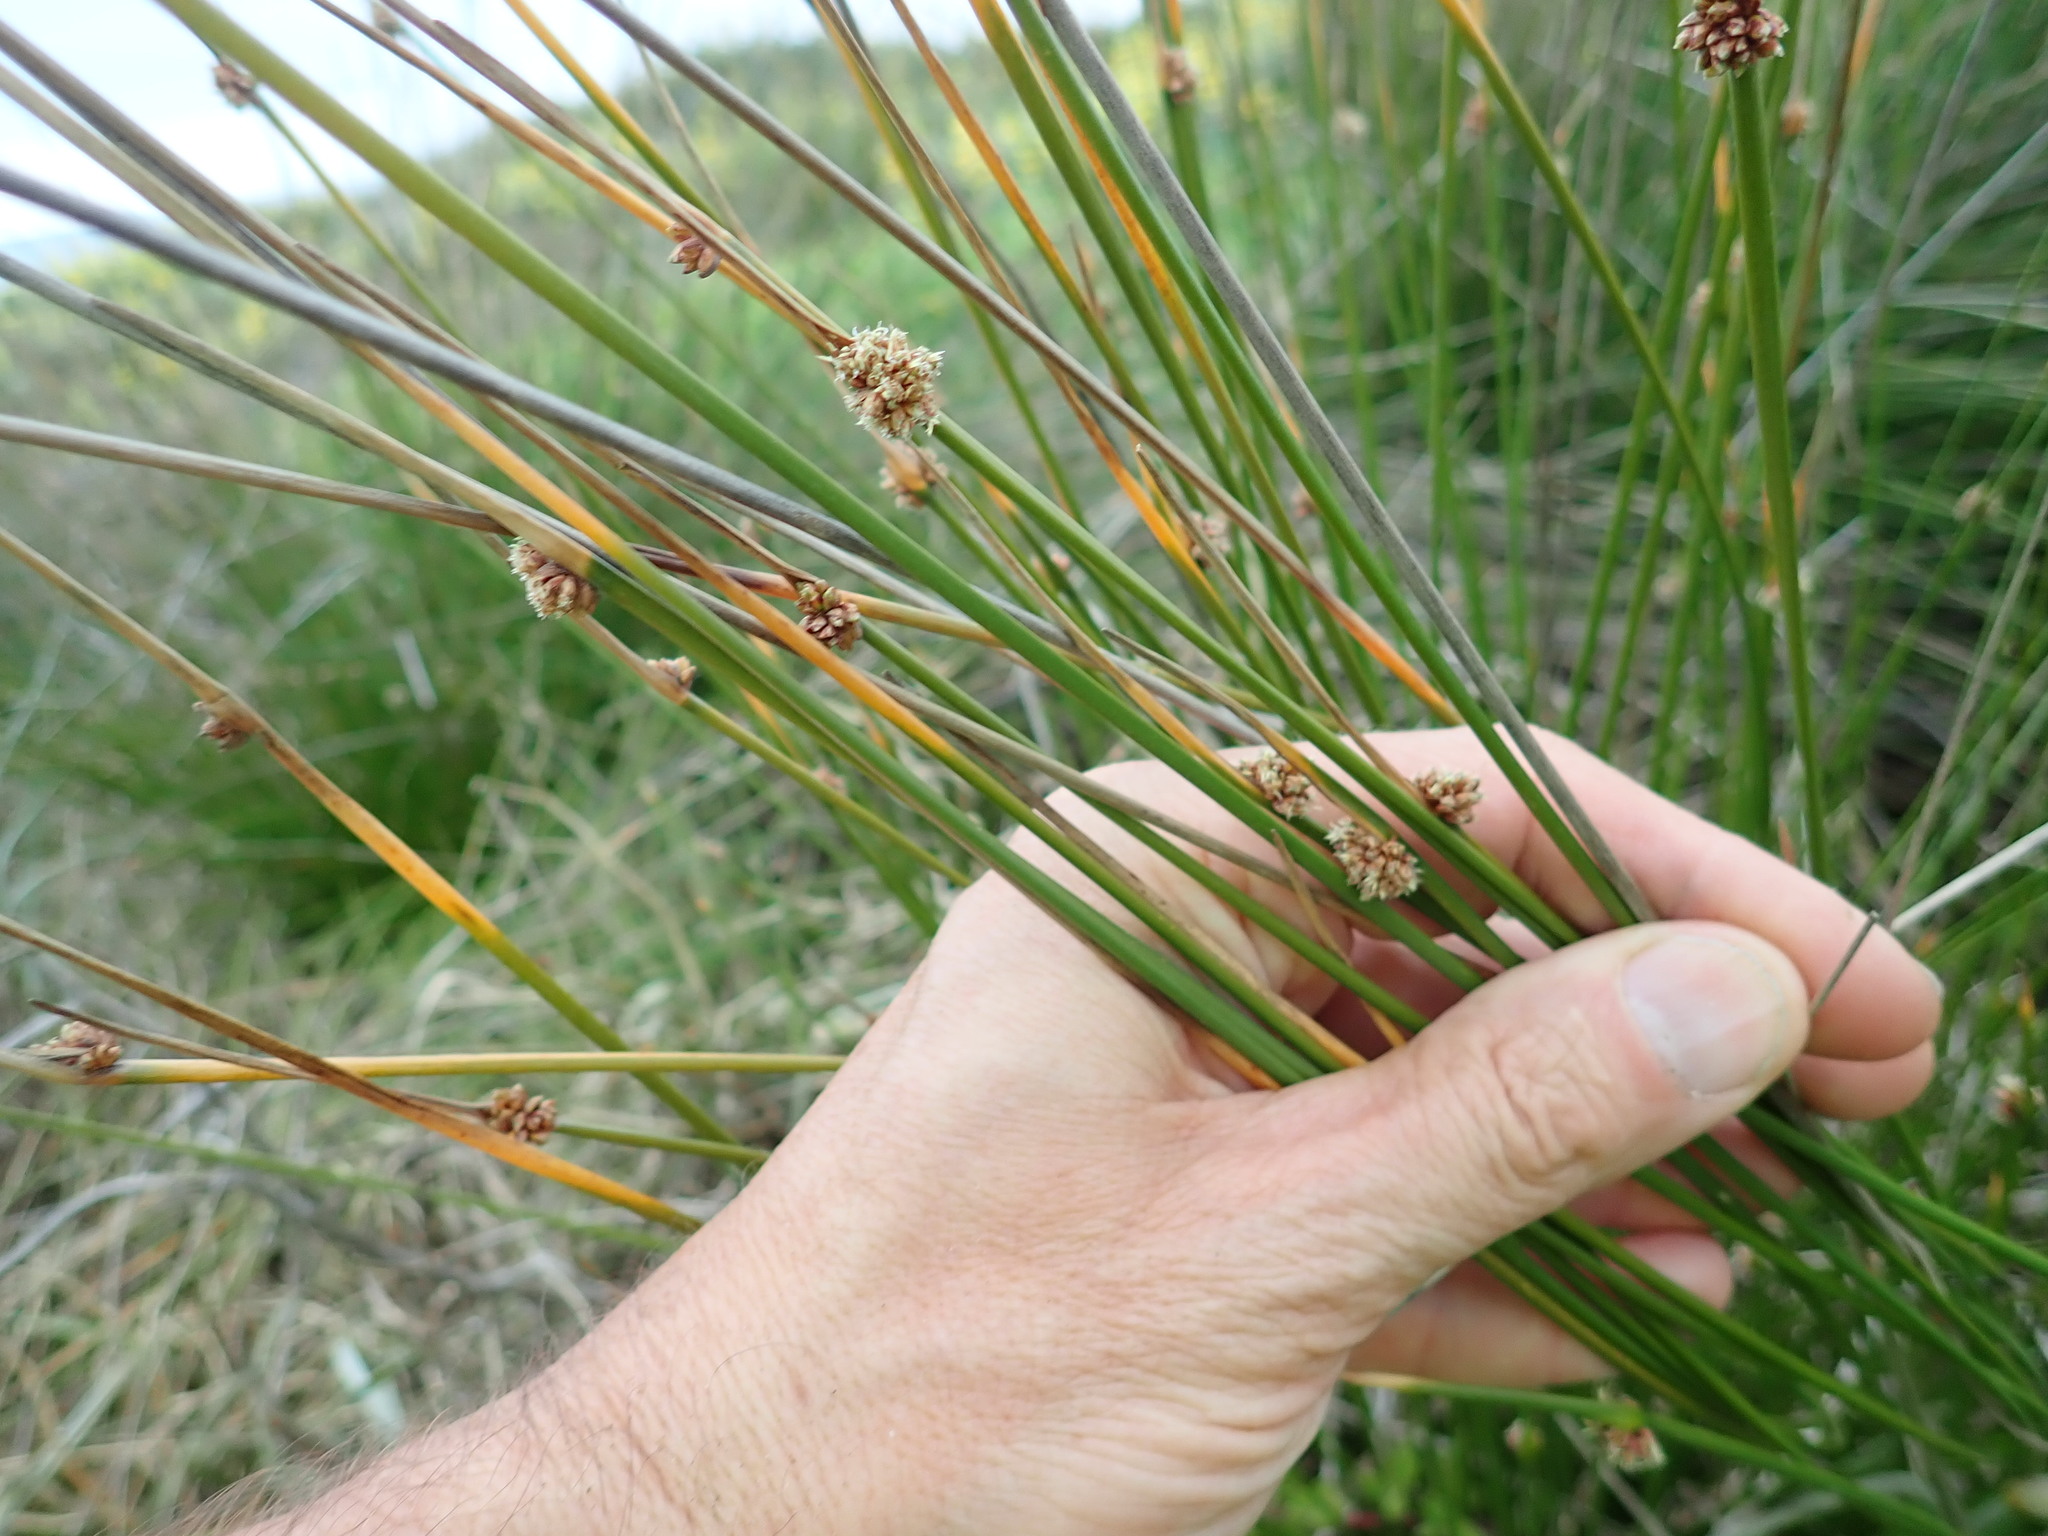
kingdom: Plantae
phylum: Tracheophyta
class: Liliopsida
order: Poales
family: Cyperaceae
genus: Ficinia
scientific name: Ficinia nodosa
